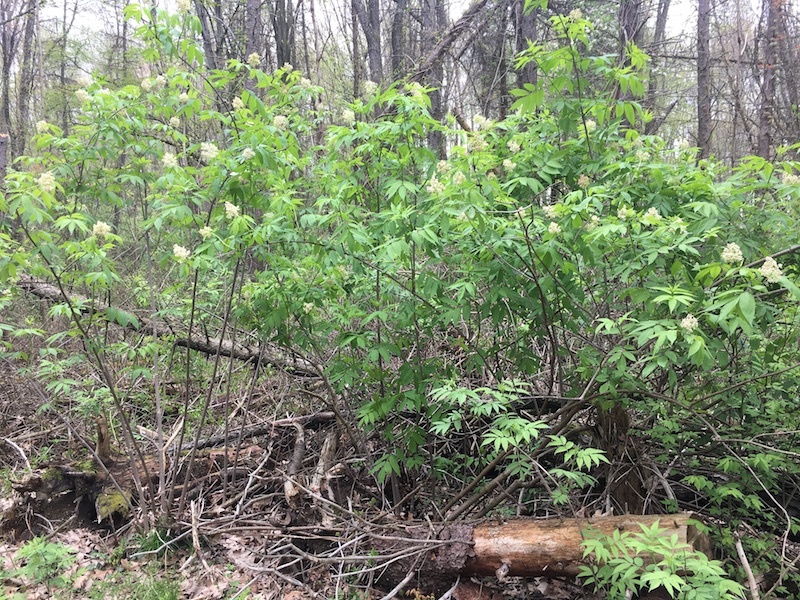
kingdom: Plantae
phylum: Tracheophyta
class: Magnoliopsida
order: Dipsacales
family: Viburnaceae
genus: Sambucus
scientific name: Sambucus racemosa
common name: Red-berried elder
